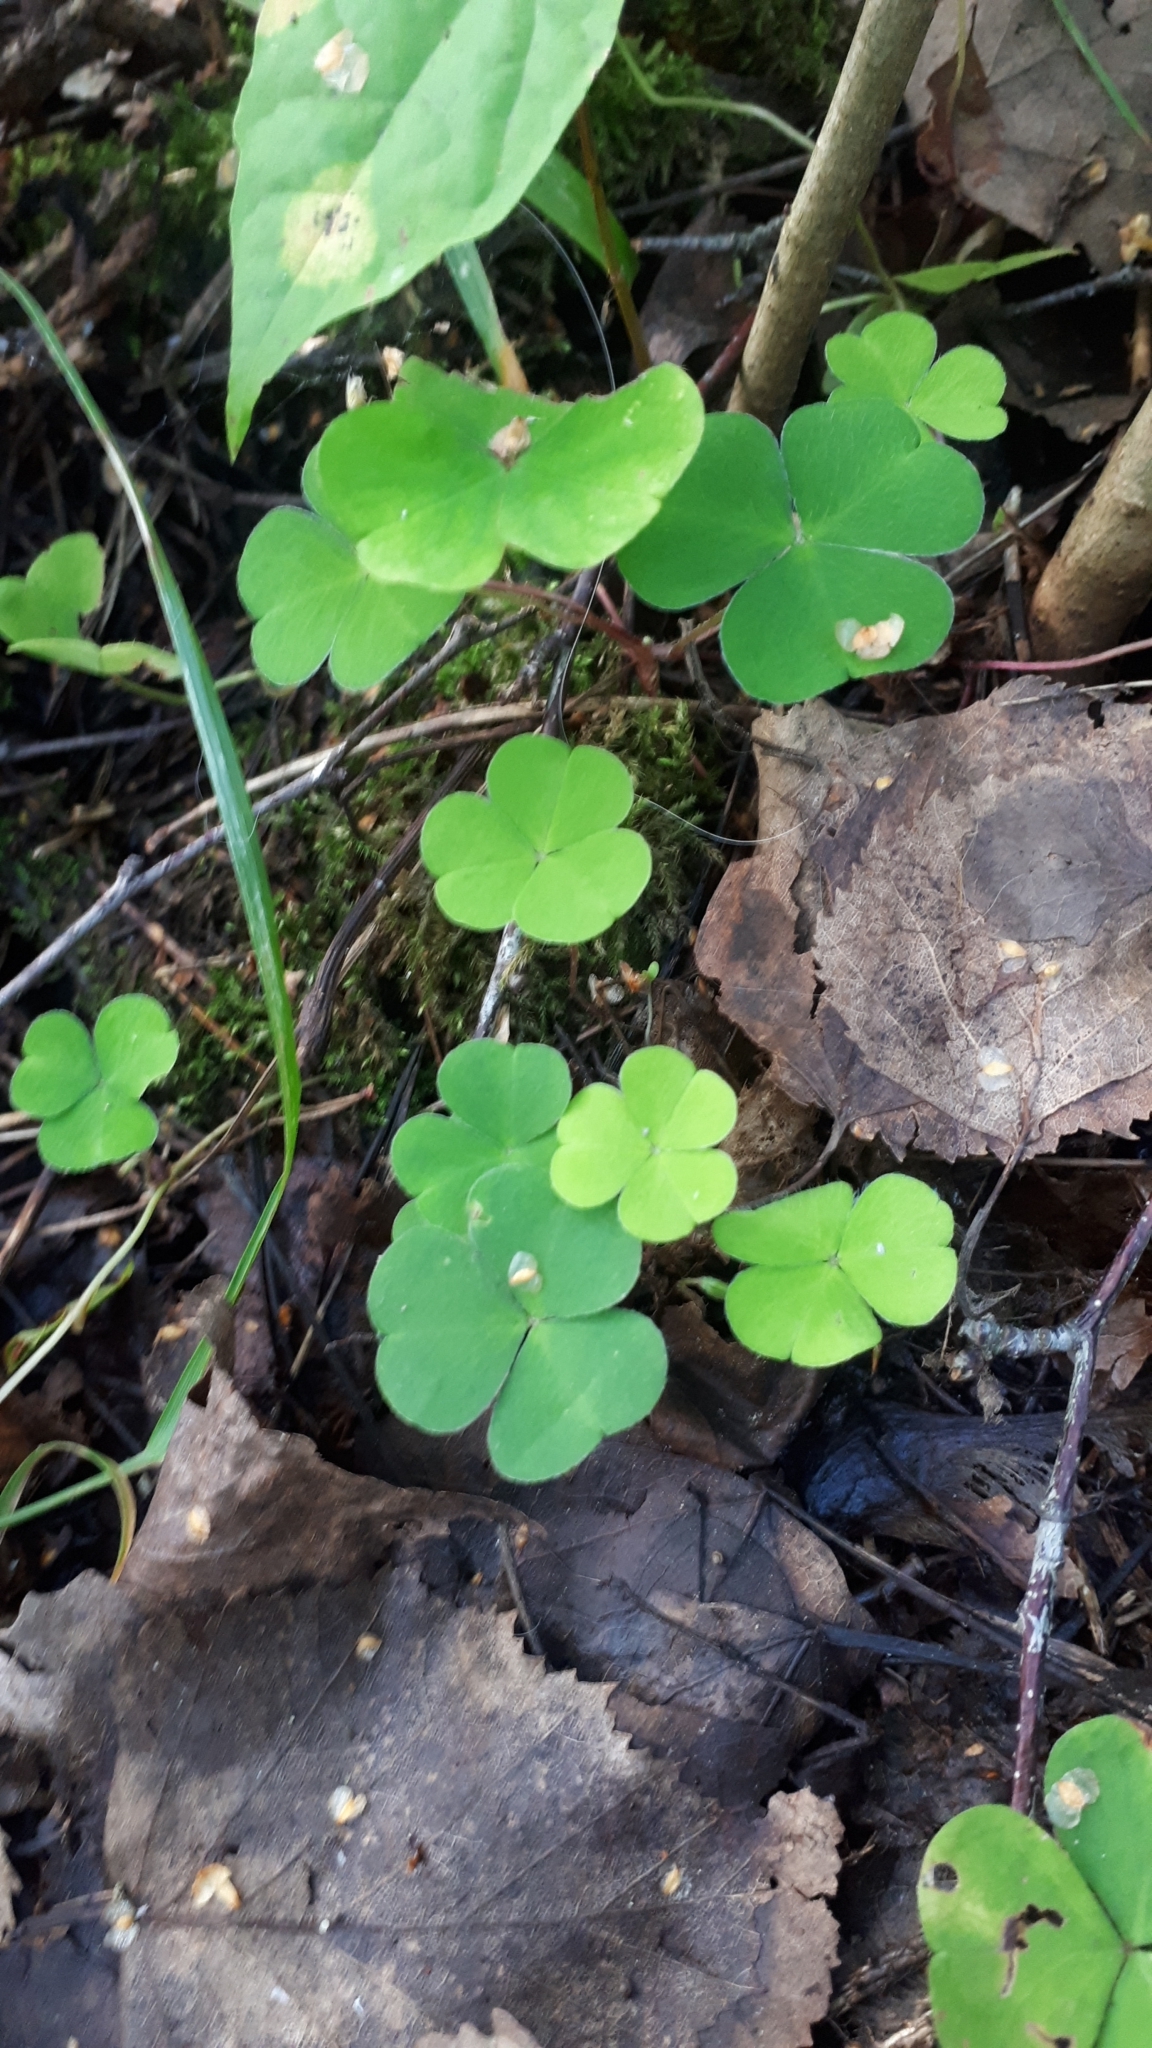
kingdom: Plantae
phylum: Tracheophyta
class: Magnoliopsida
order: Oxalidales
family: Oxalidaceae
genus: Oxalis
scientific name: Oxalis acetosella
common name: Wood-sorrel
